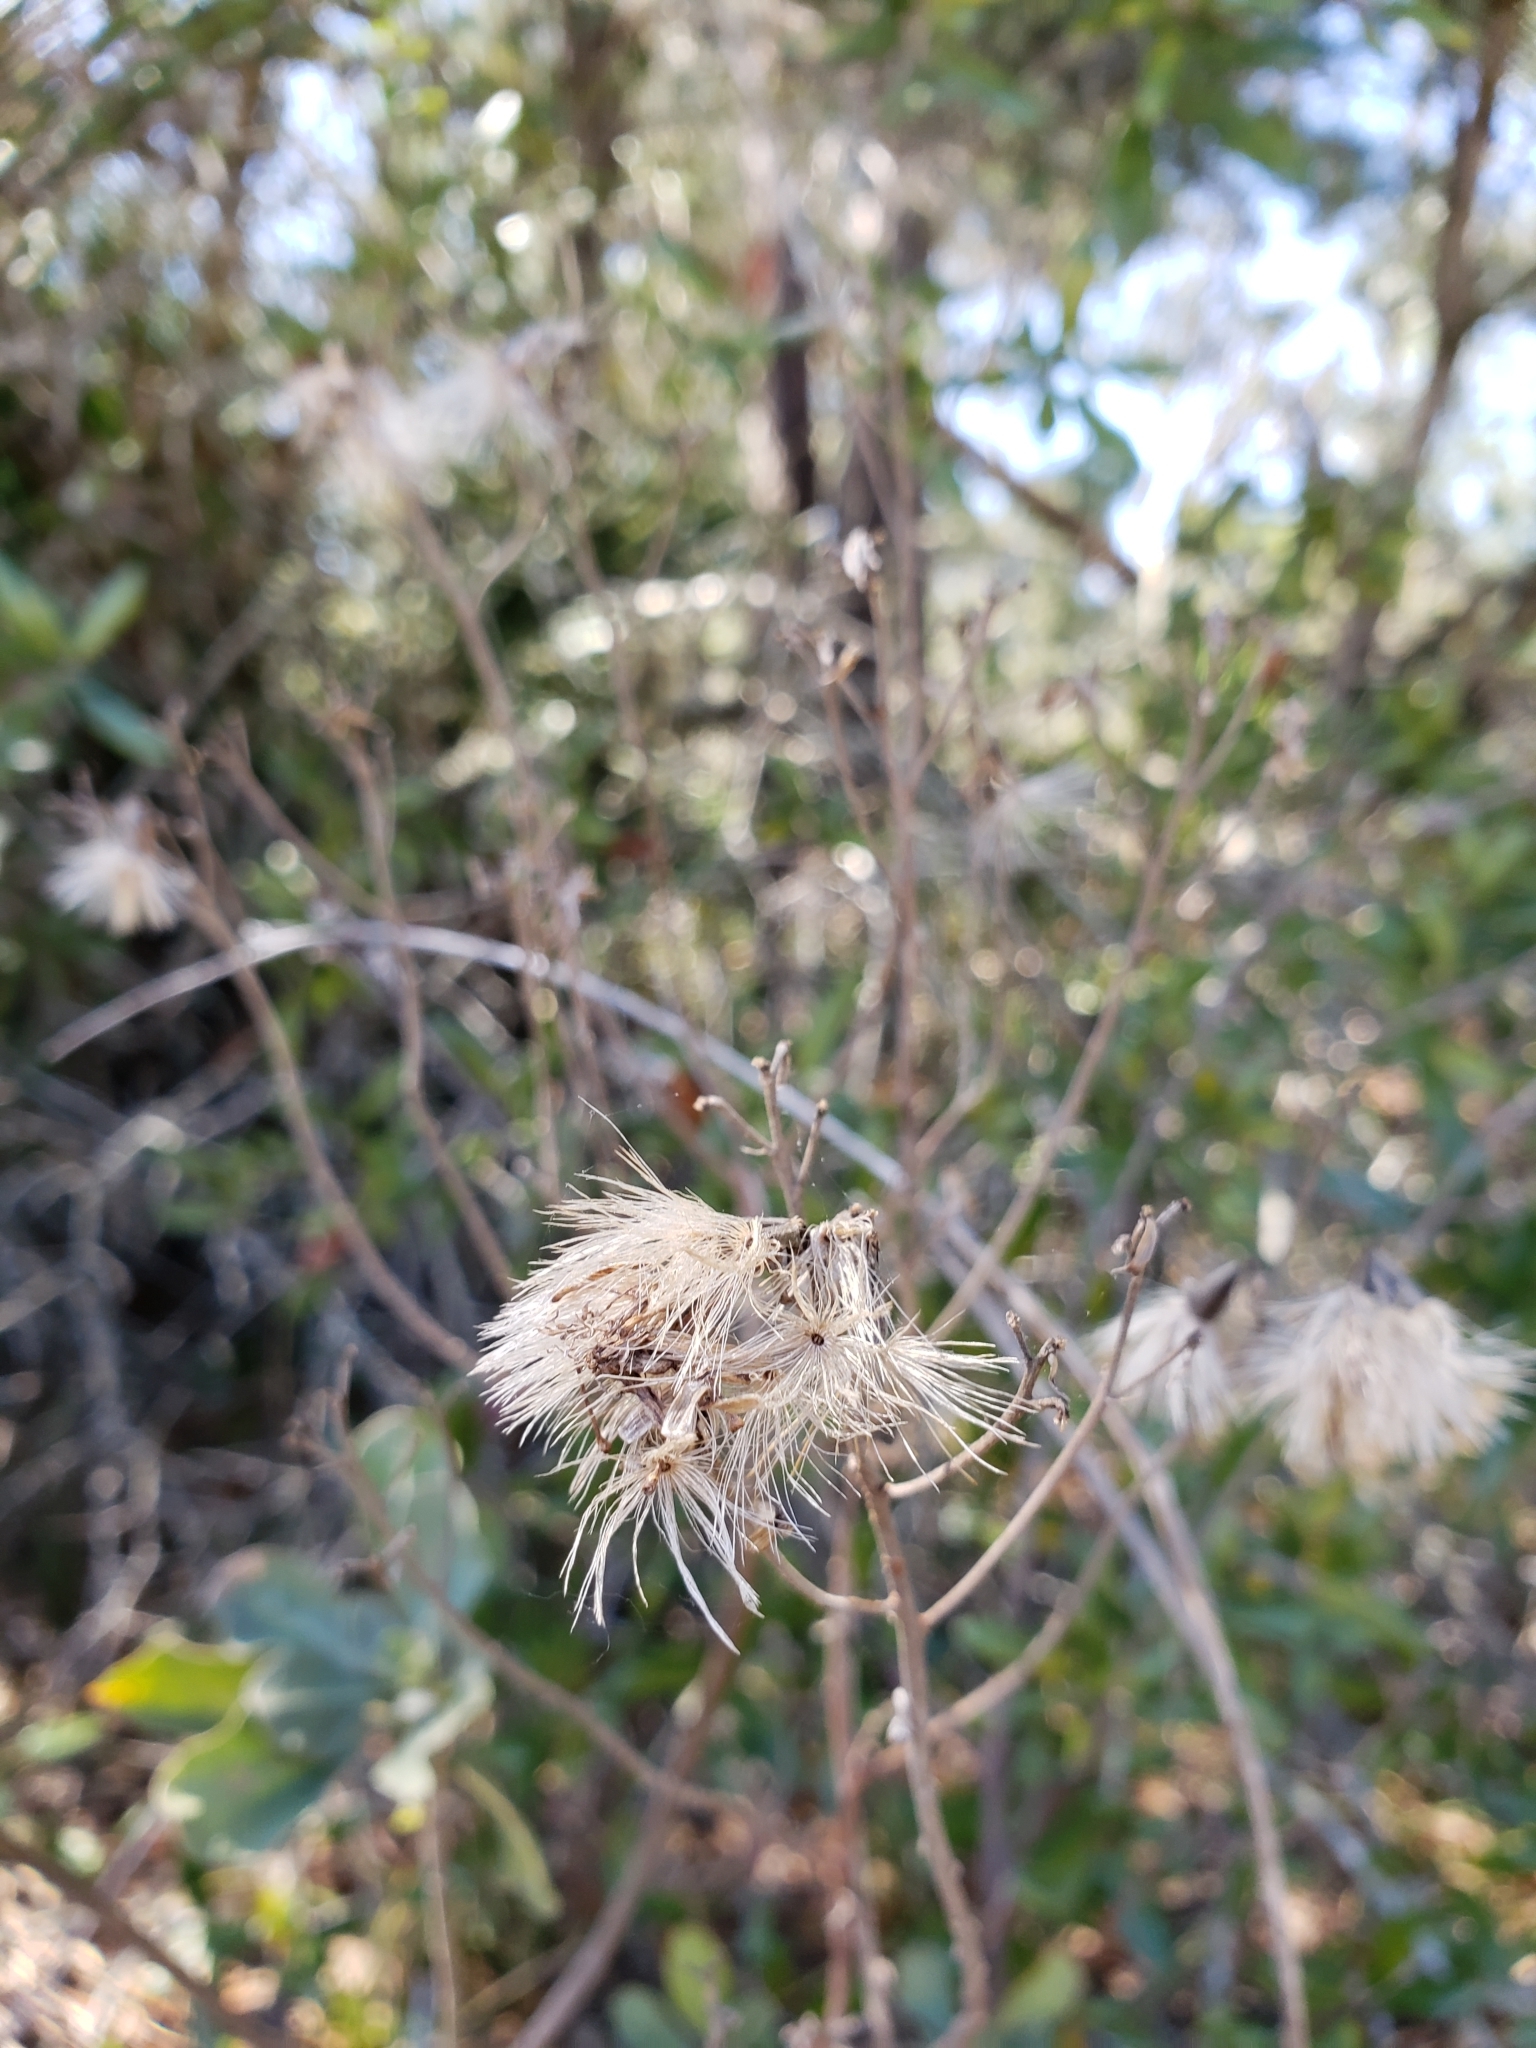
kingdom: Plantae
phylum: Tracheophyta
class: Magnoliopsida
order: Asterales
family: Asteraceae
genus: Garberia
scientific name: Garberia heterophylla
